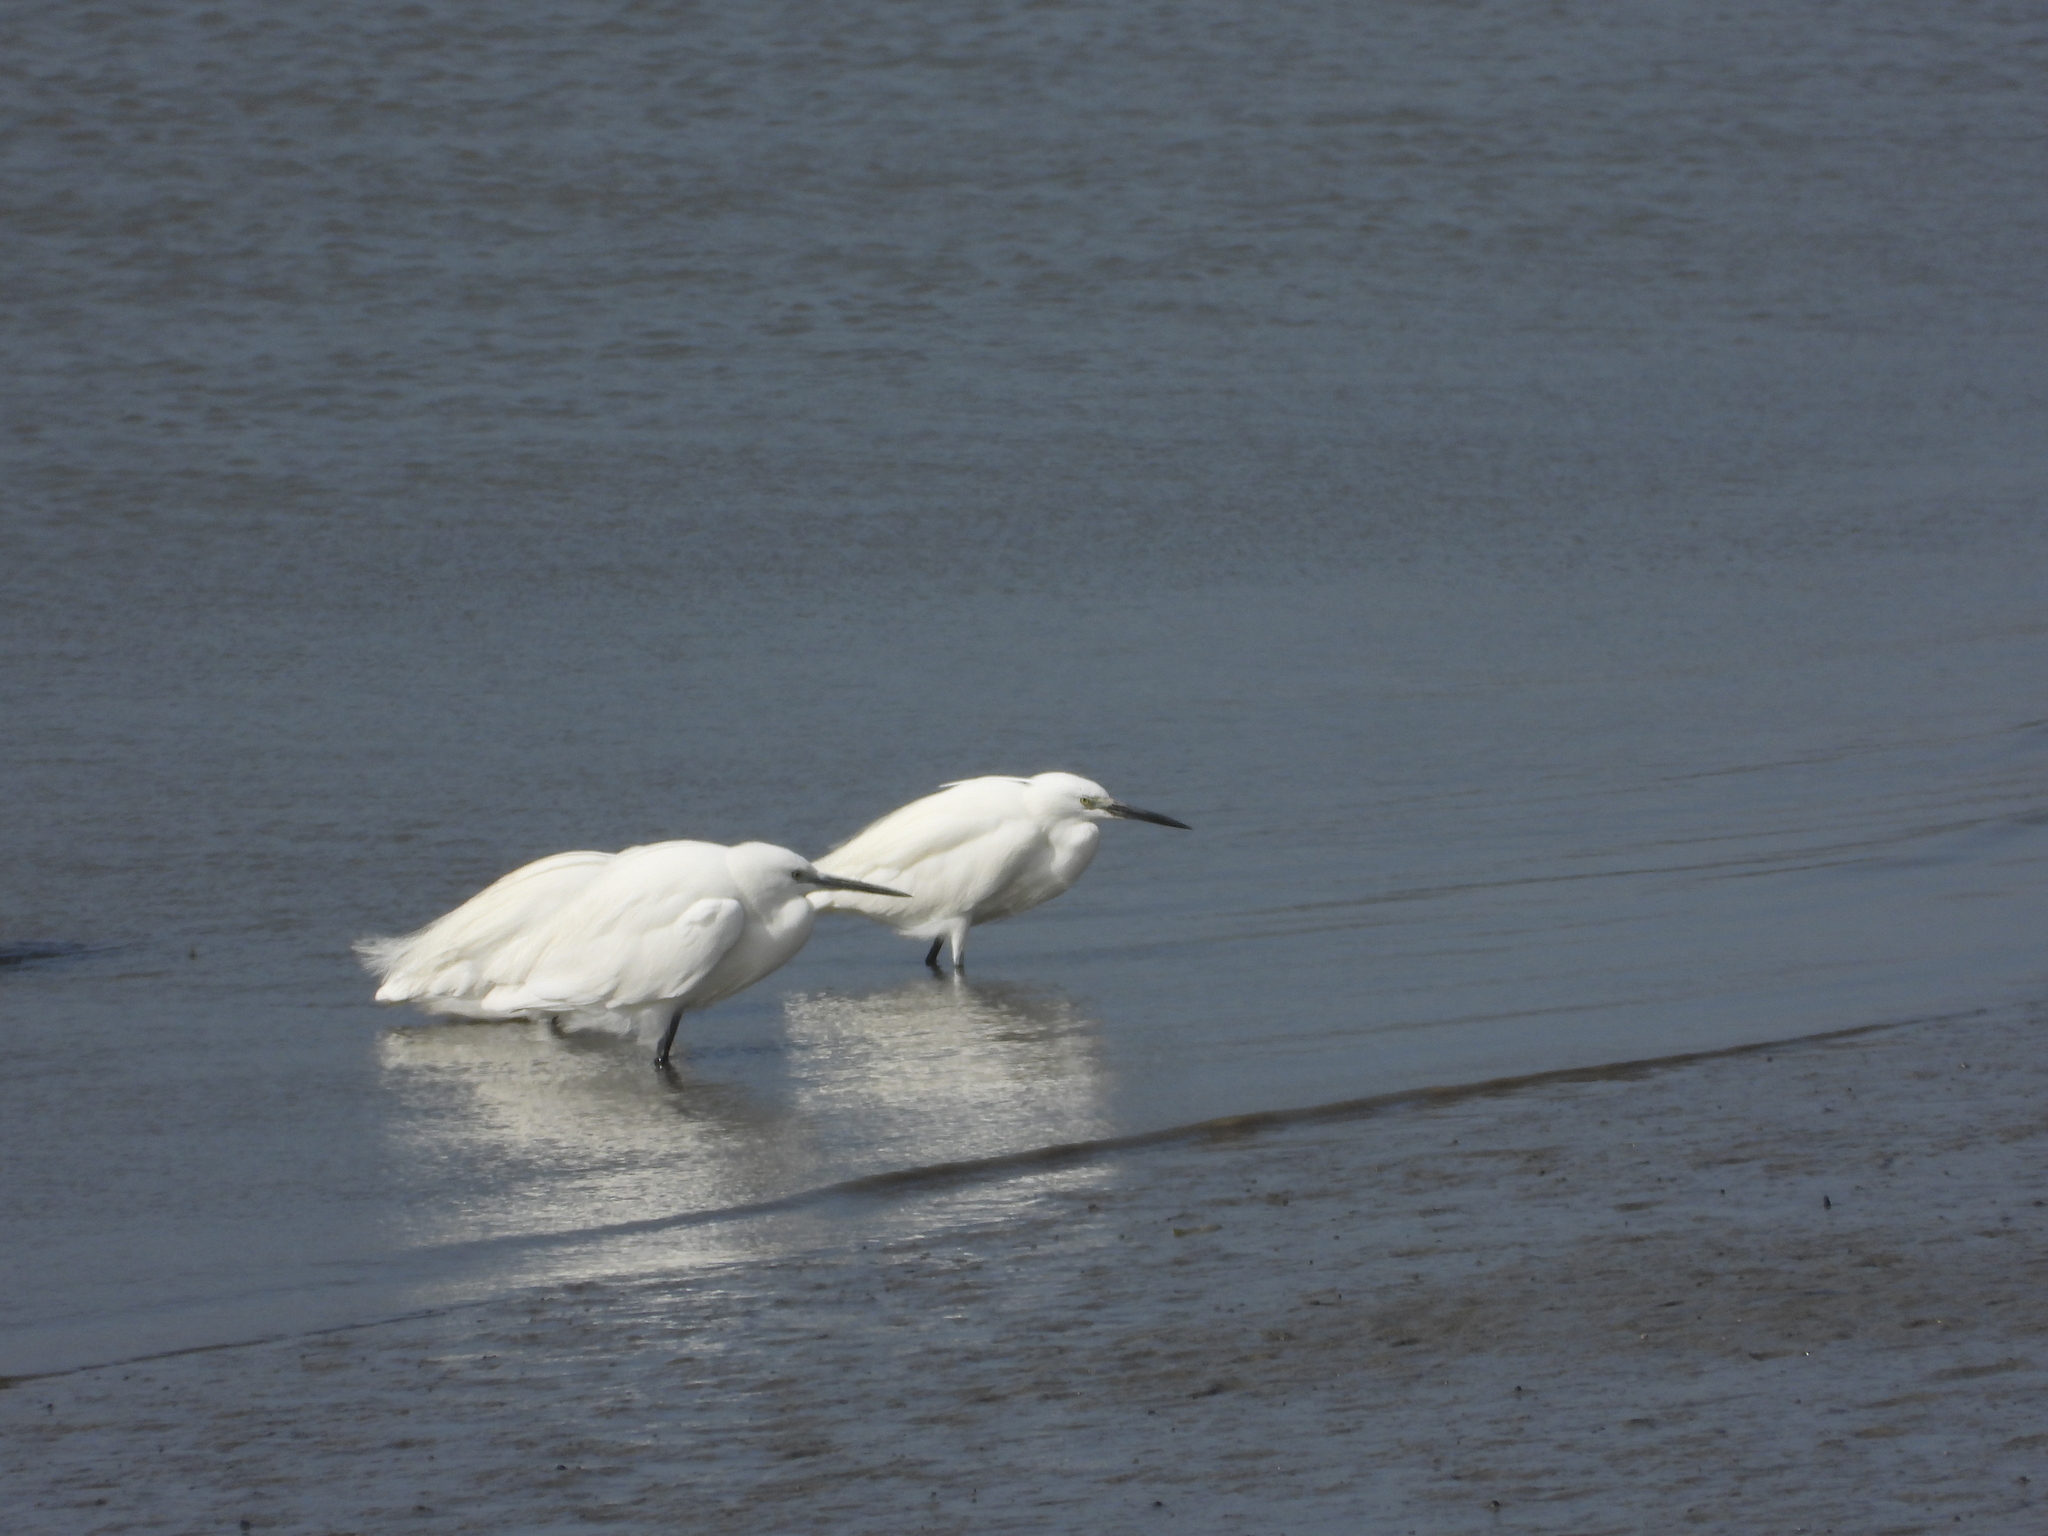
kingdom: Animalia
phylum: Chordata
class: Aves
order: Pelecaniformes
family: Ardeidae
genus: Egretta
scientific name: Egretta garzetta
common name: Little egret
